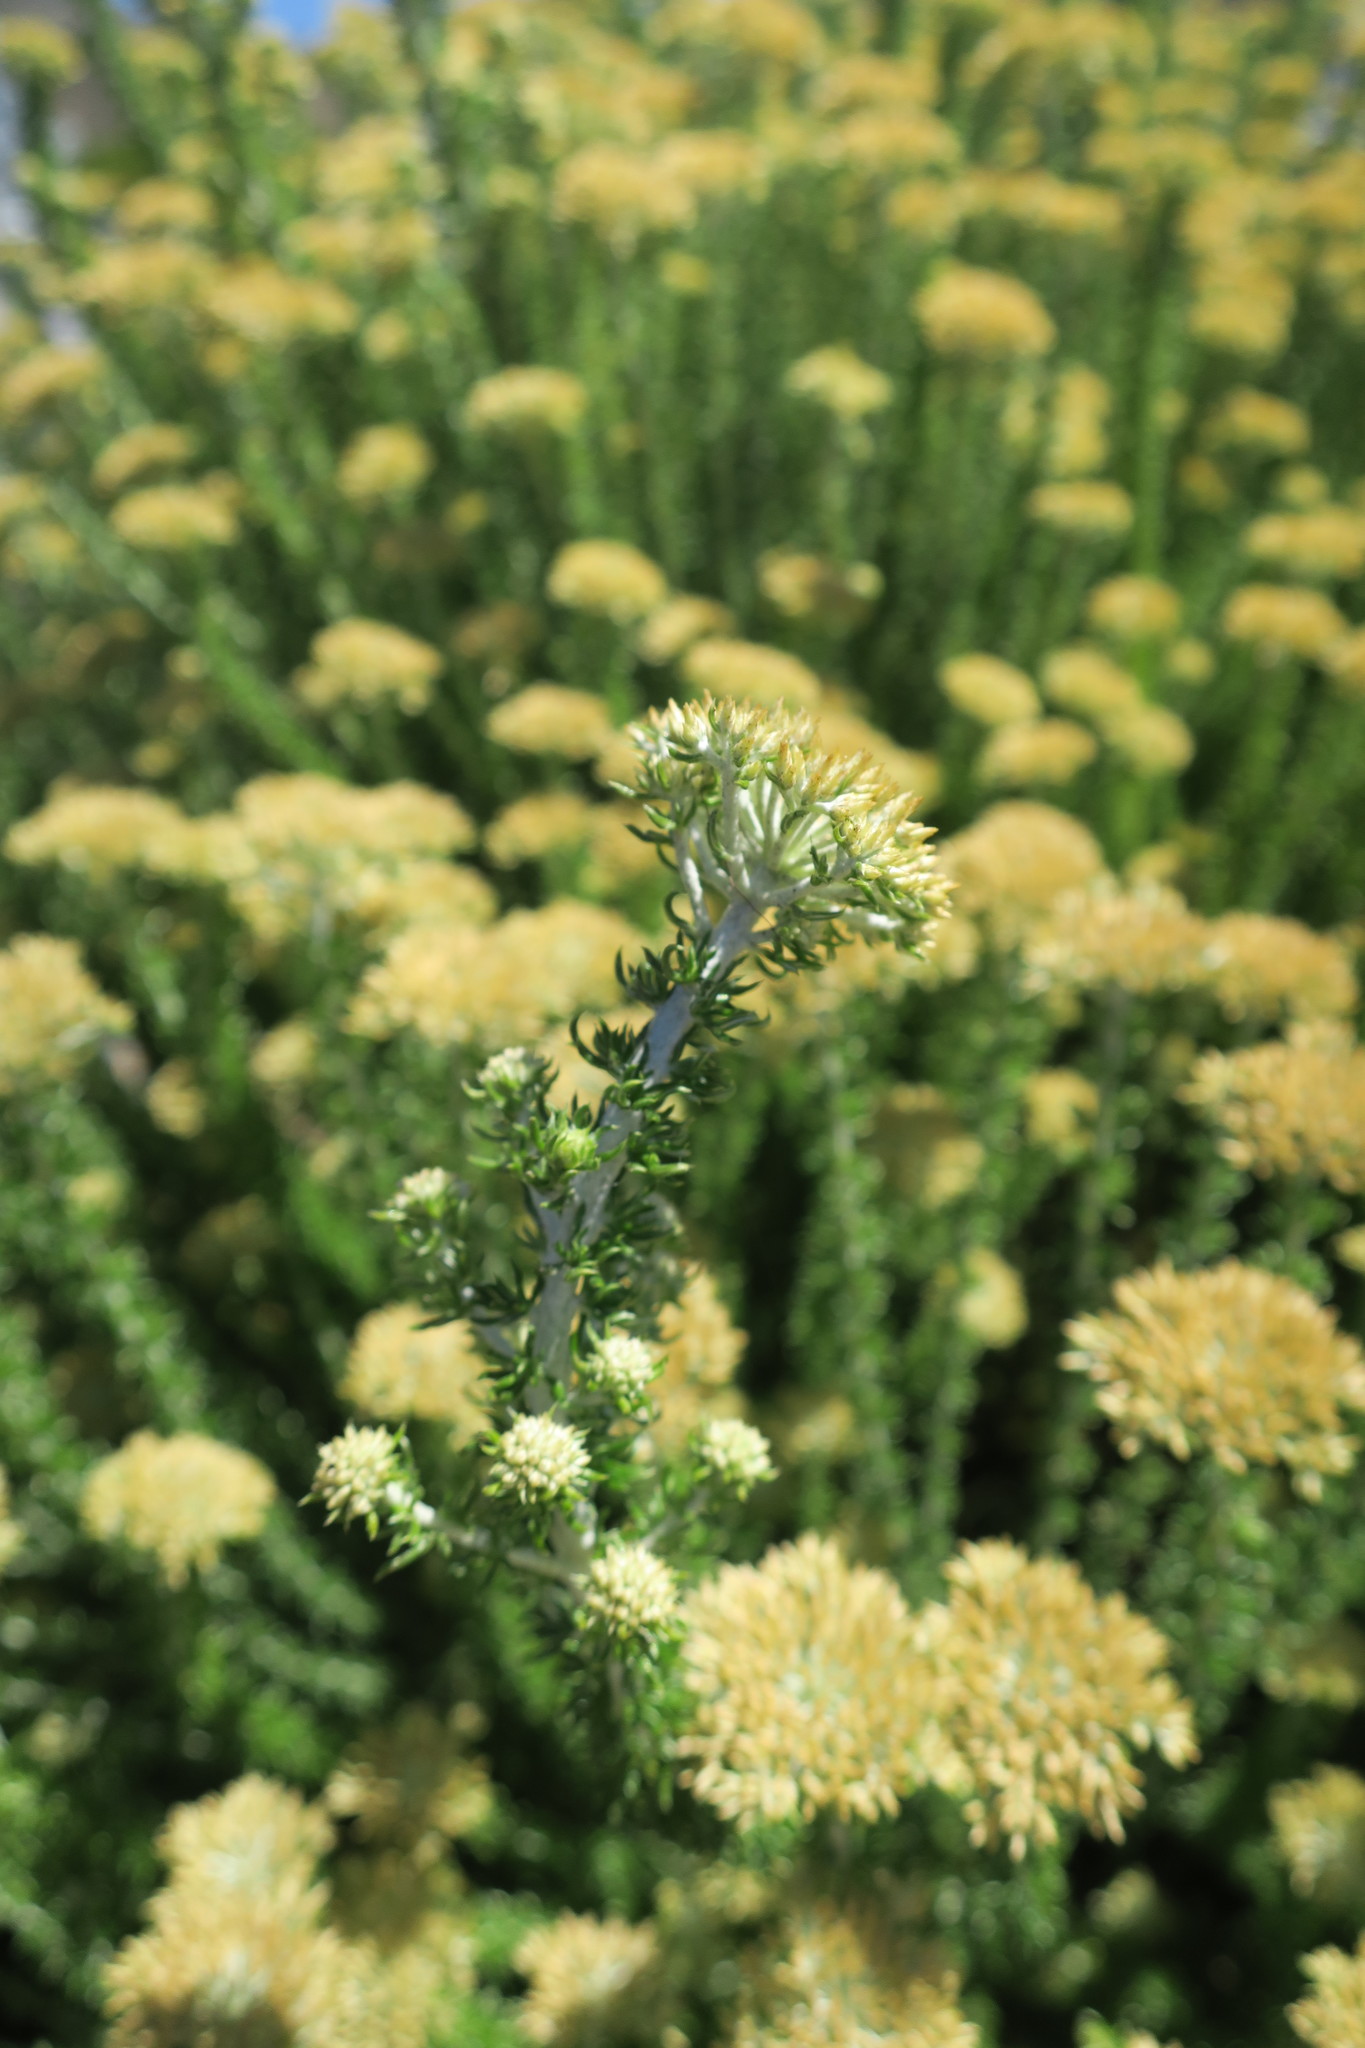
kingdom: Plantae
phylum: Tracheophyta
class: Magnoliopsida
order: Asterales
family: Asteraceae
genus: Metalasia
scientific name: Metalasia muricata
